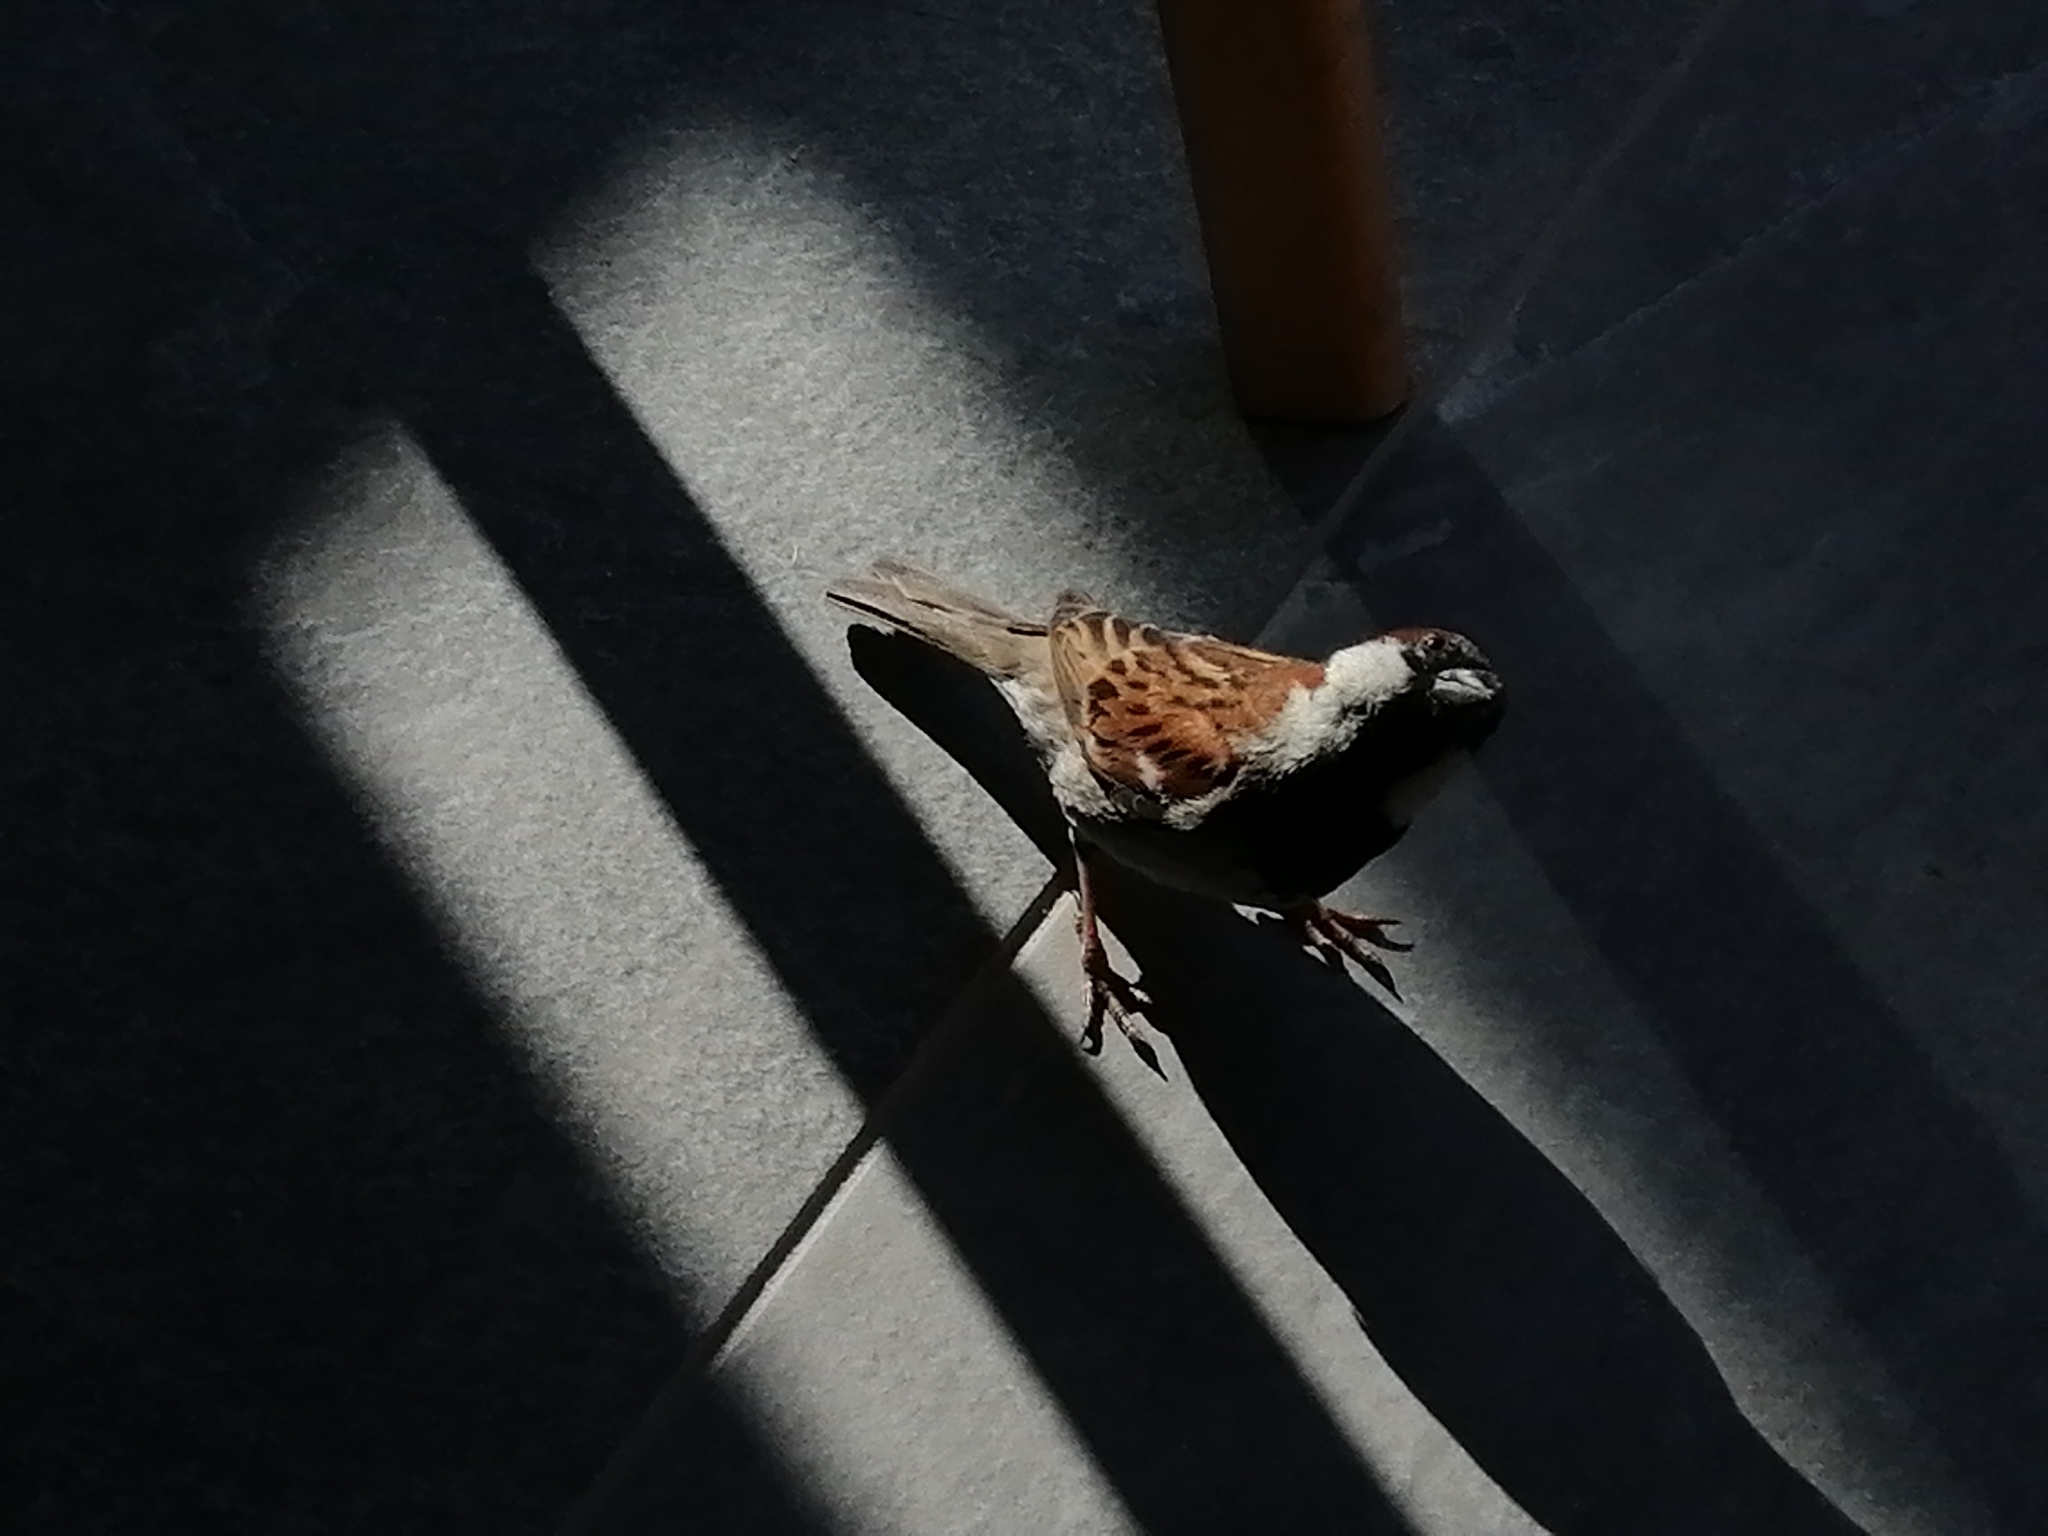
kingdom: Animalia
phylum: Chordata
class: Aves
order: Passeriformes
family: Passeridae
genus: Passer
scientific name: Passer domesticus
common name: House sparrow
